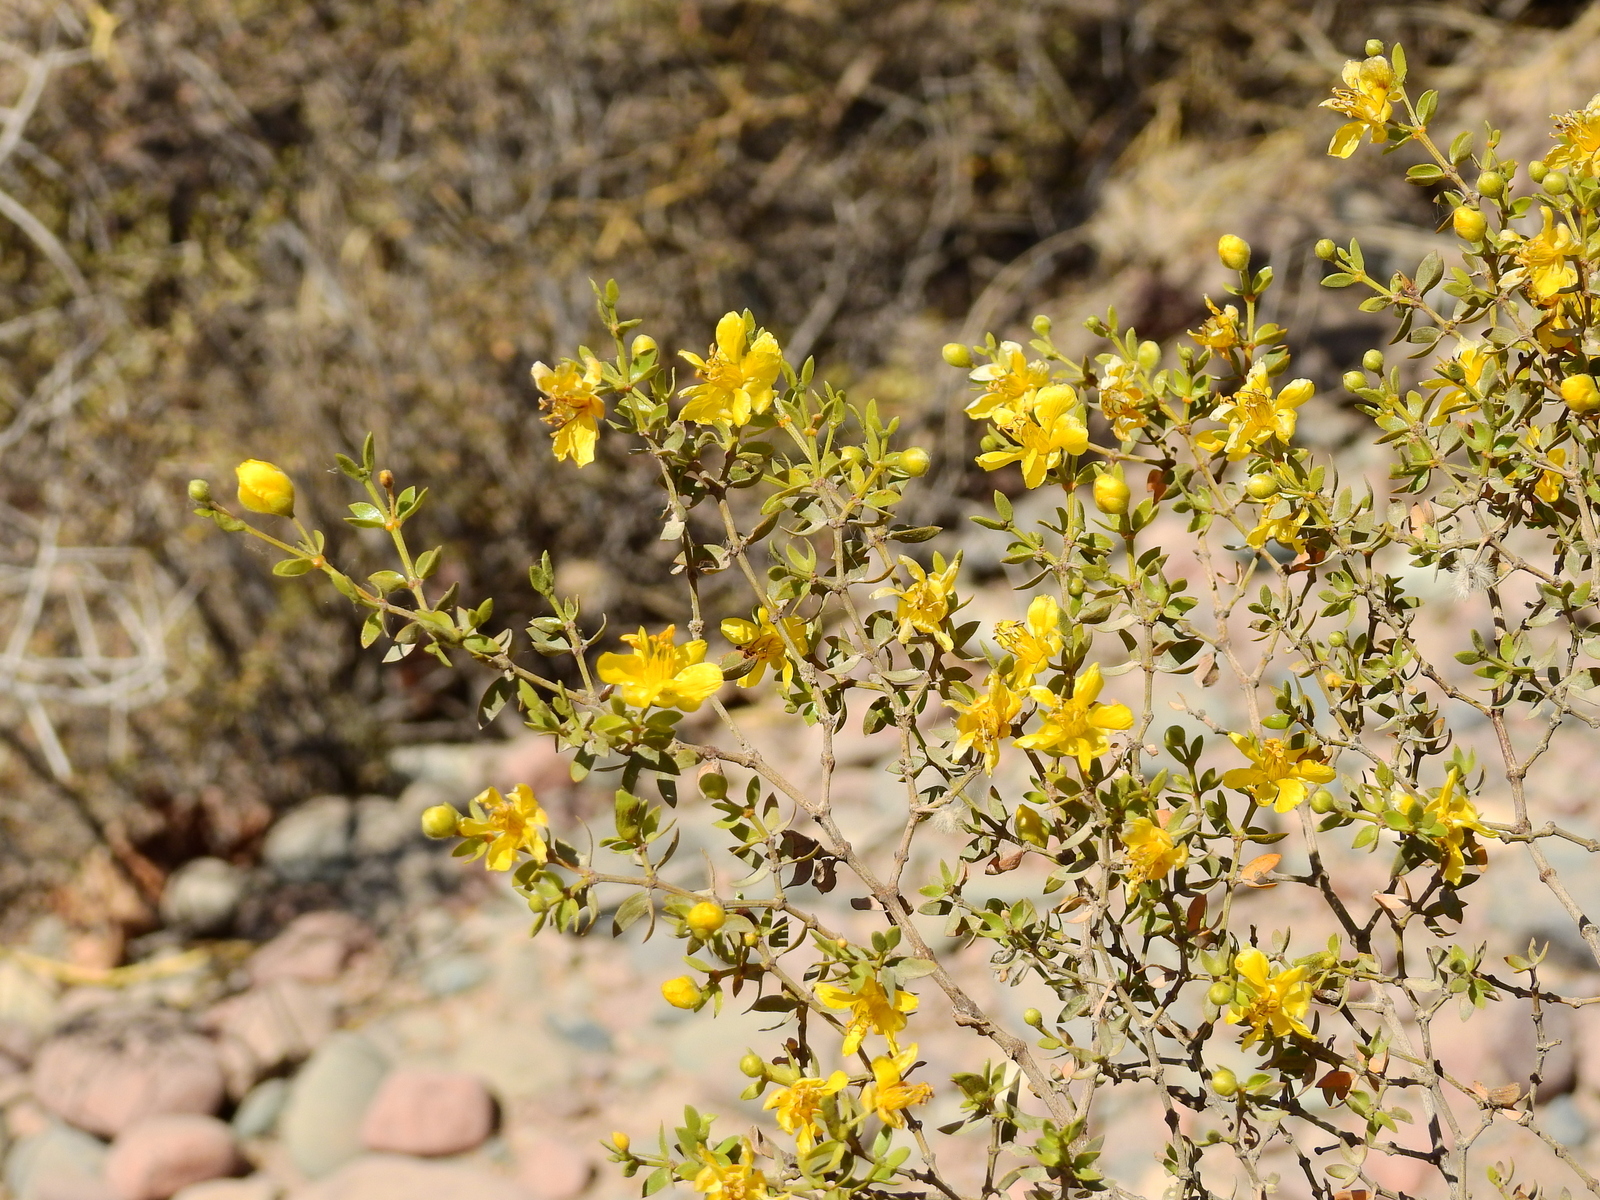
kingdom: Plantae
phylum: Tracheophyta
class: Magnoliopsida
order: Zygophyllales
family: Zygophyllaceae
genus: Larrea
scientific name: Larrea divaricata
